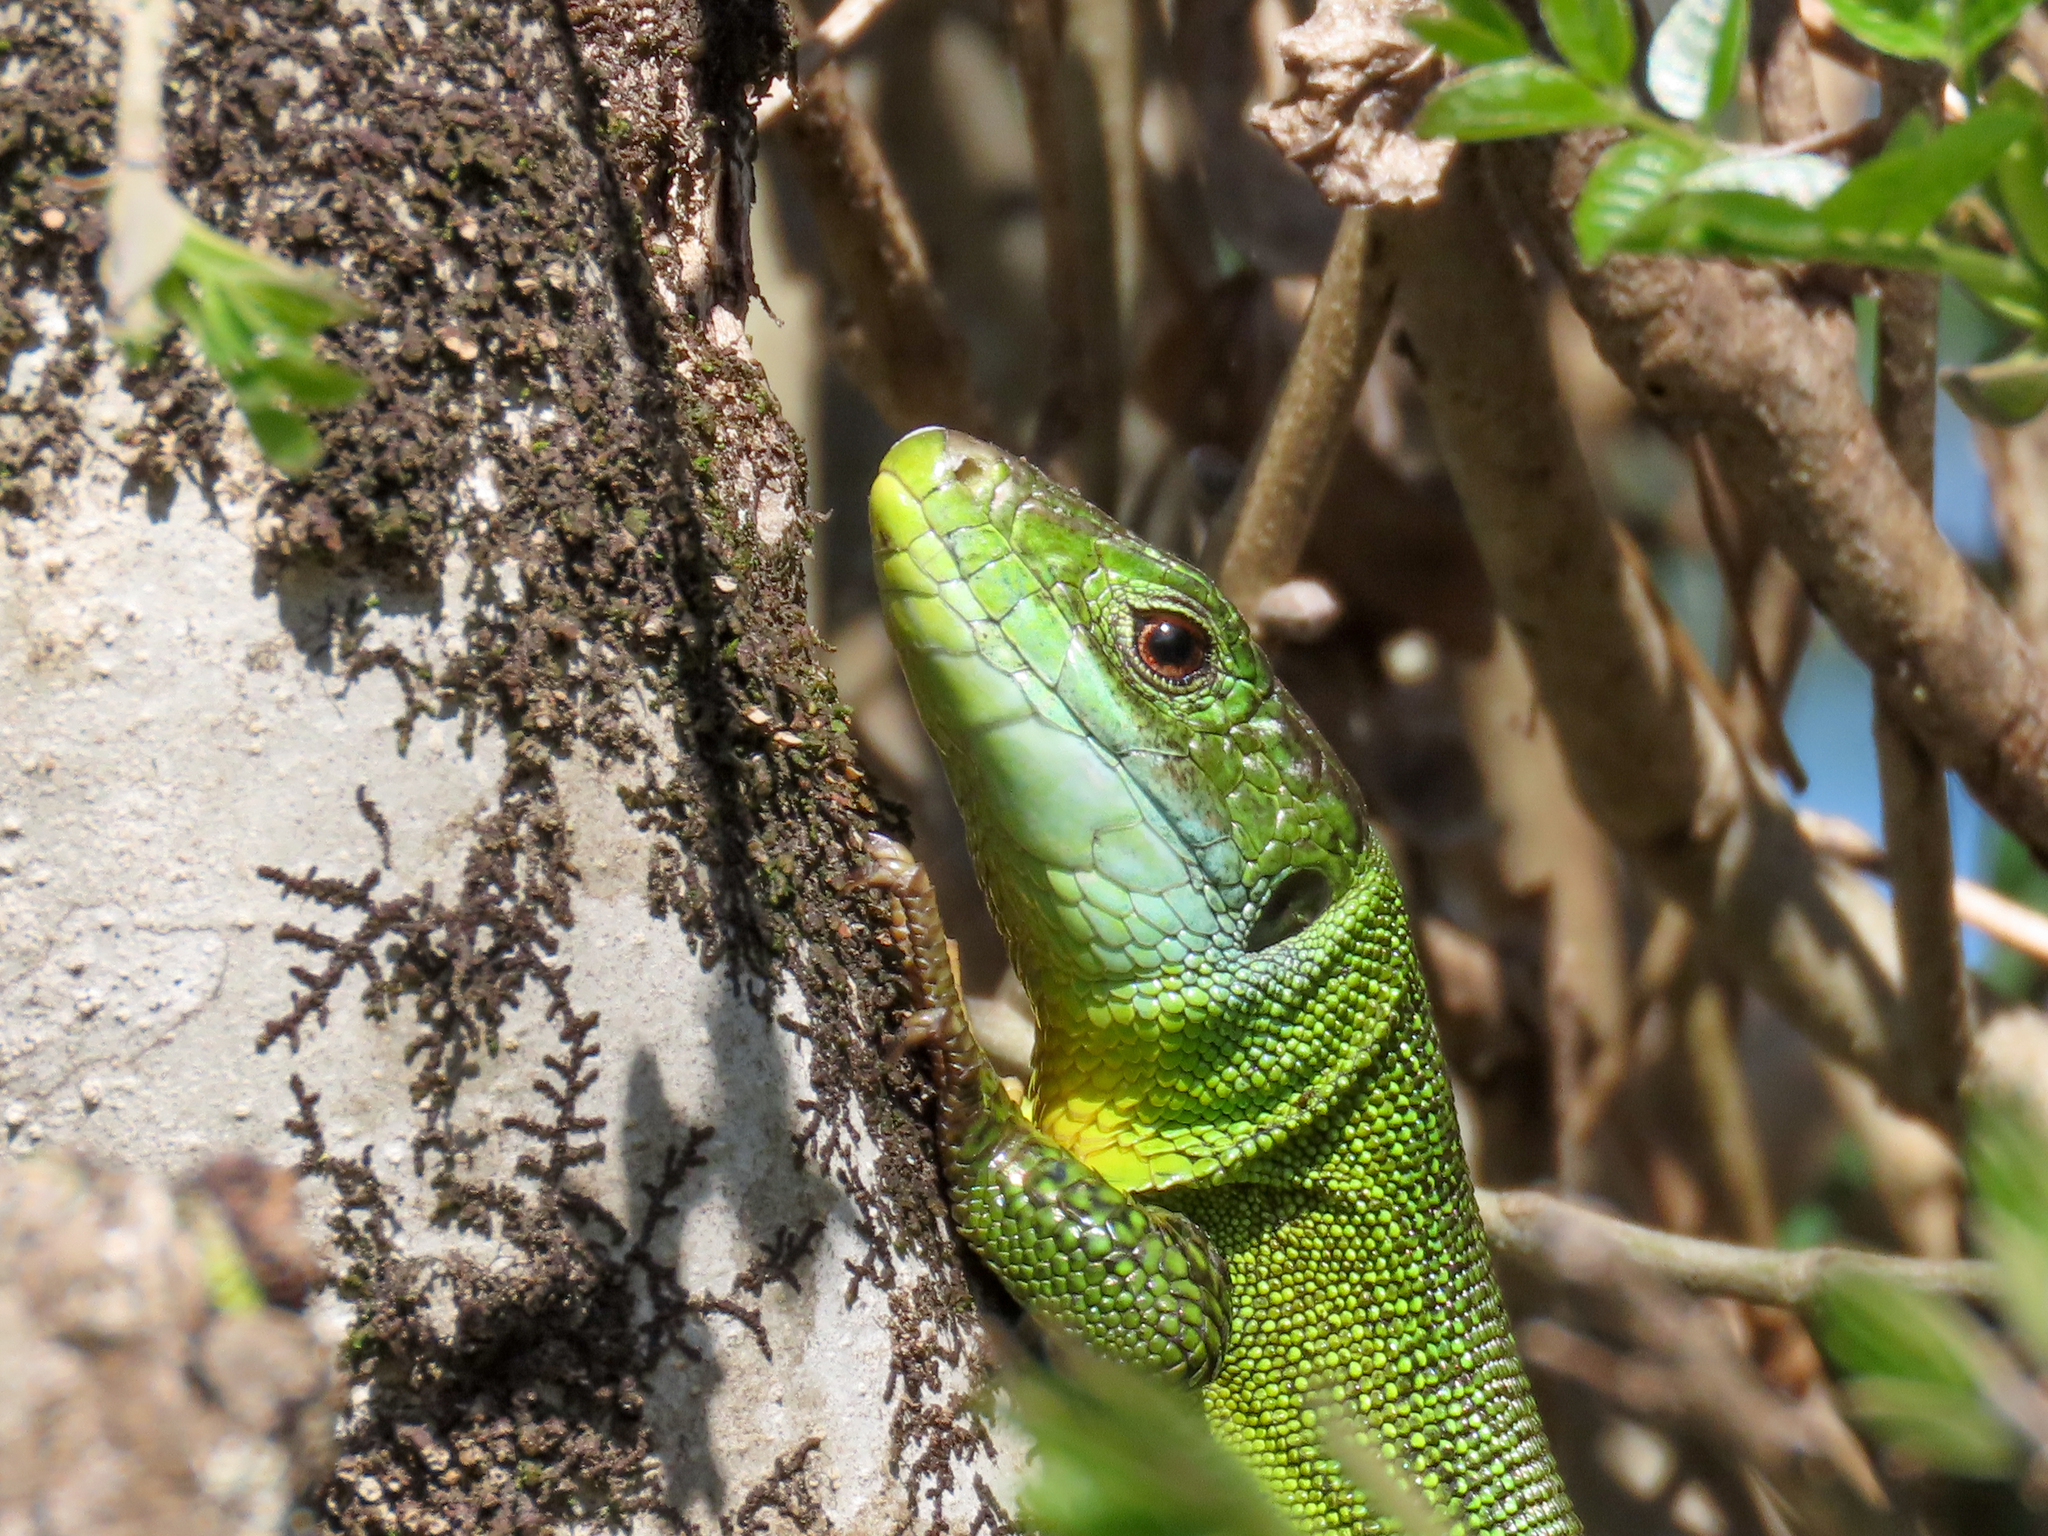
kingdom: Animalia
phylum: Chordata
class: Squamata
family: Lacertidae
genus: Lacerta
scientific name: Lacerta bilineata
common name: Western green lizard
